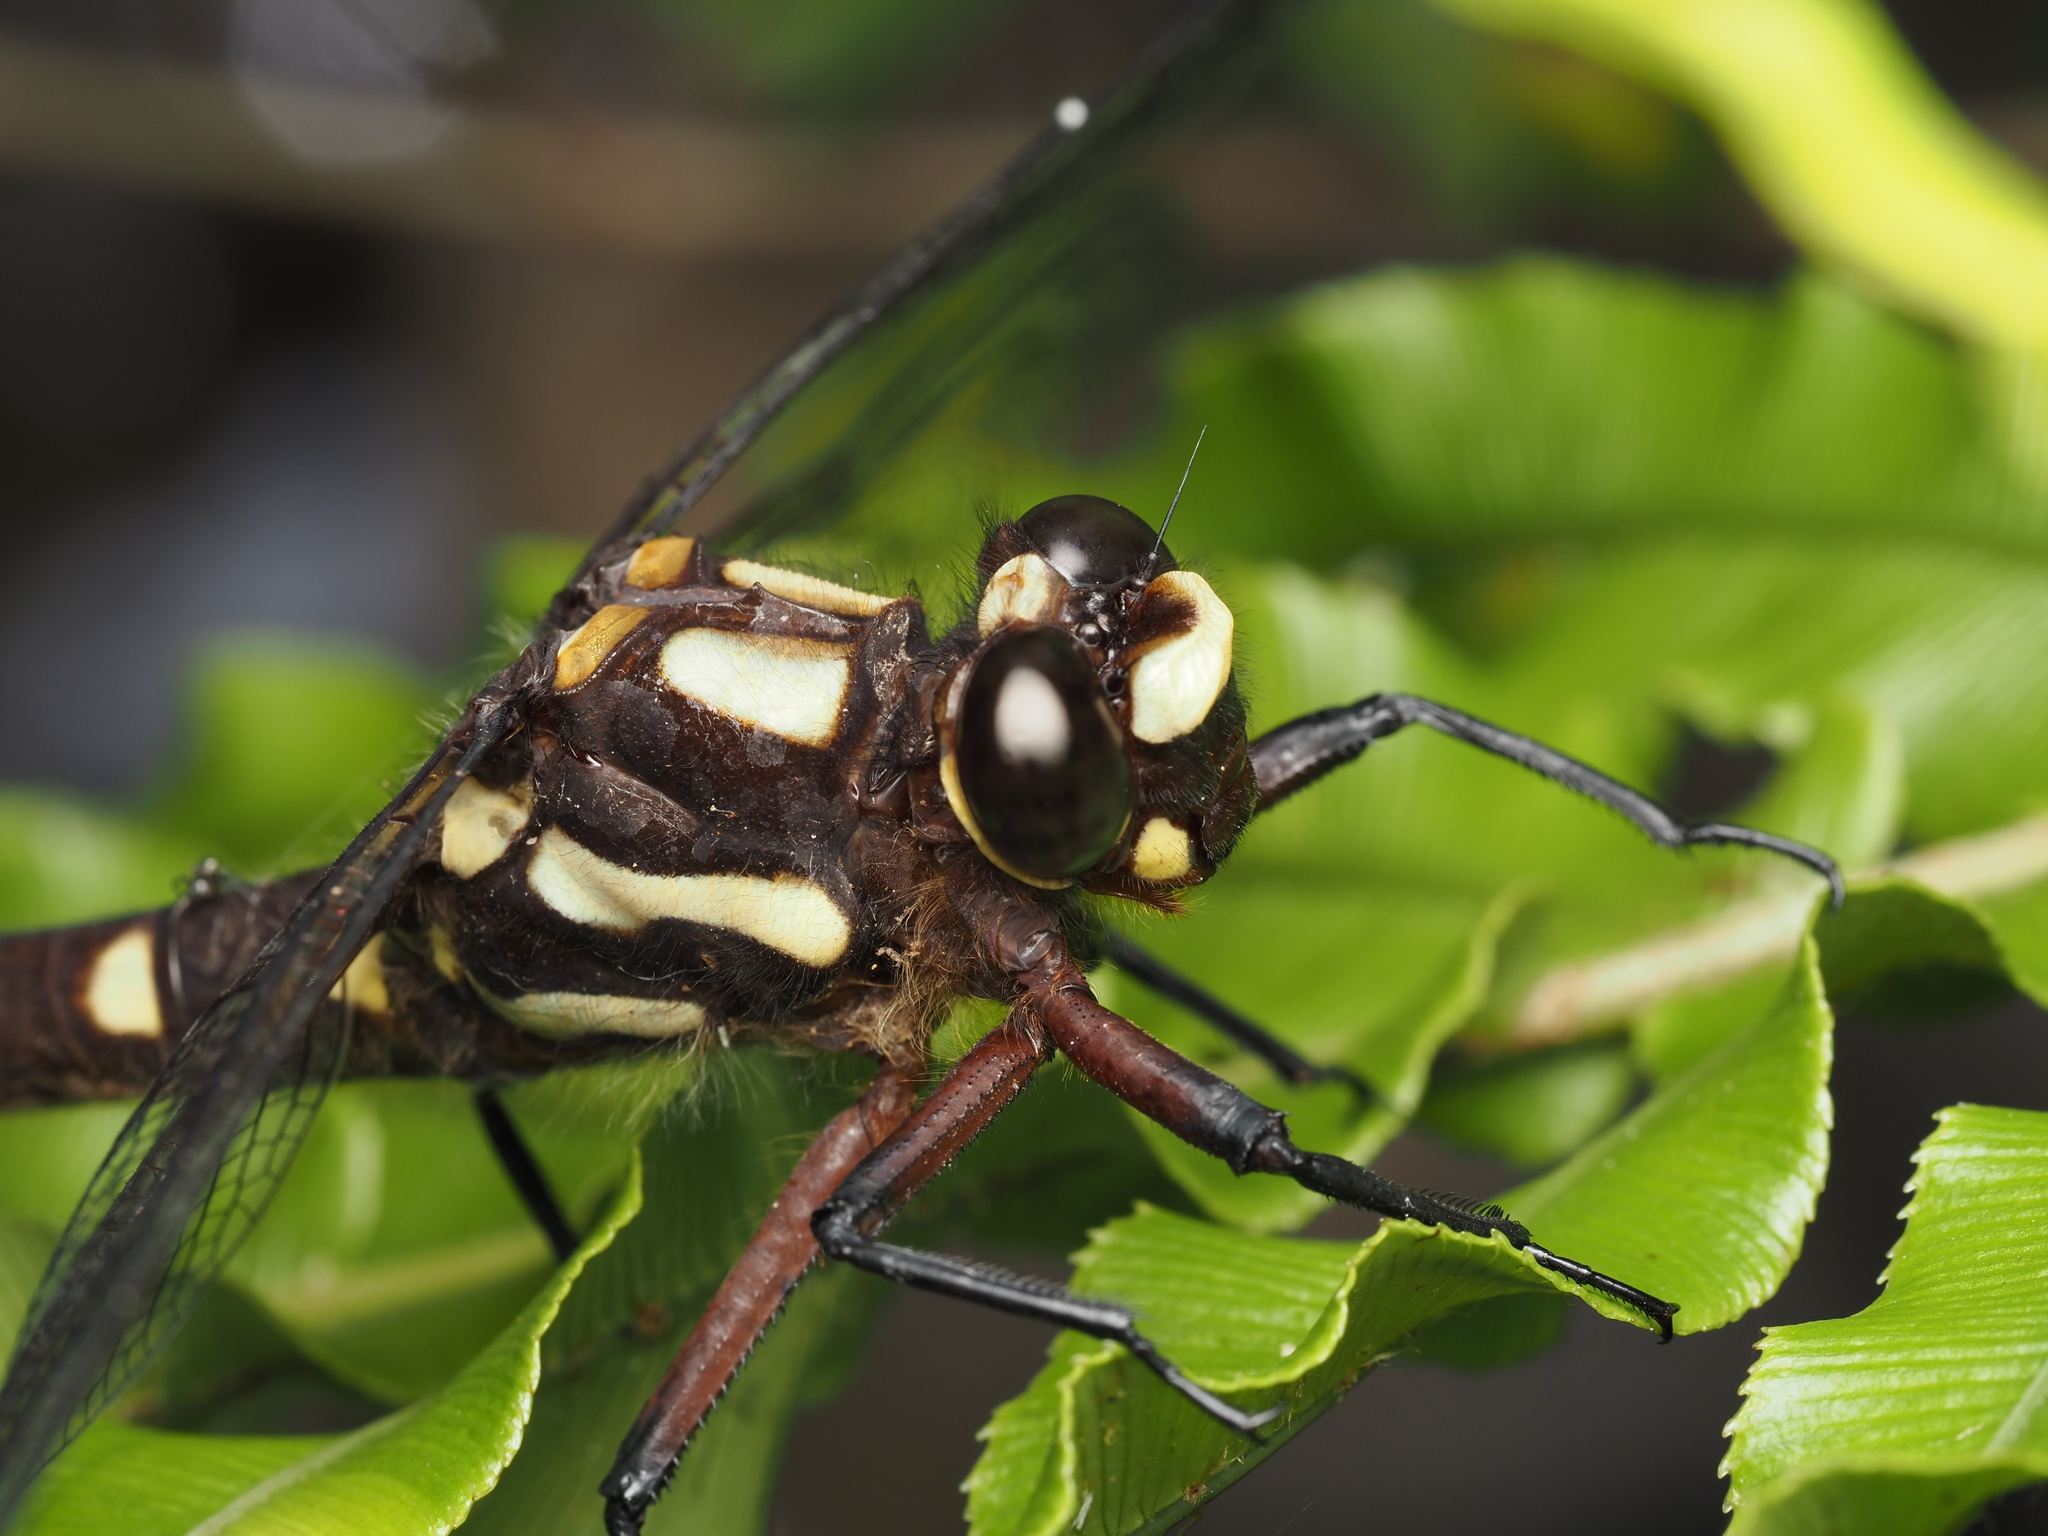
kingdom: Animalia
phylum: Arthropoda
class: Insecta
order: Odonata
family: Petaluridae
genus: Uropetala
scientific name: Uropetala carovei
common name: Bush giant dragonfly
